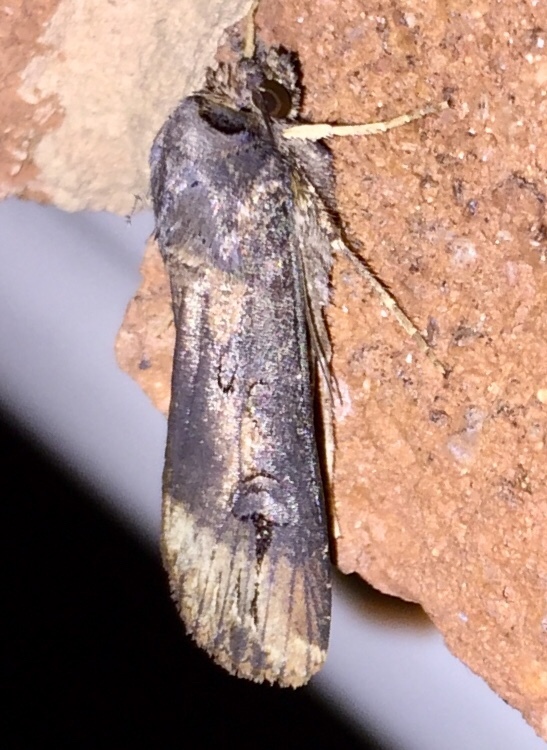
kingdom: Animalia
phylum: Arthropoda
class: Insecta
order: Lepidoptera
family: Noctuidae
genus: Agrotis
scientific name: Agrotis ipsilon
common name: Dark sword-grass
